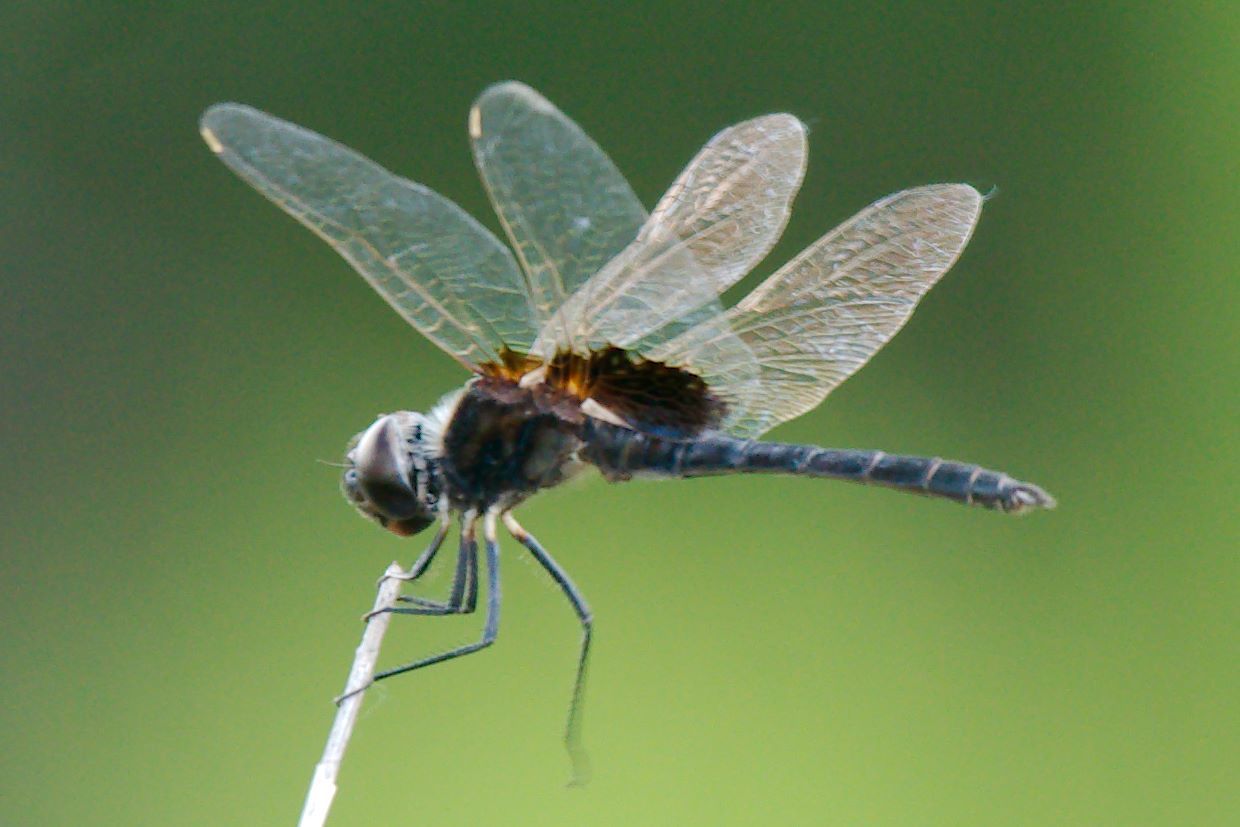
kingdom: Animalia
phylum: Arthropoda
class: Insecta
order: Odonata
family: Libellulidae
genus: Macrodiplax
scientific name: Macrodiplax balteata
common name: Marl pennant
